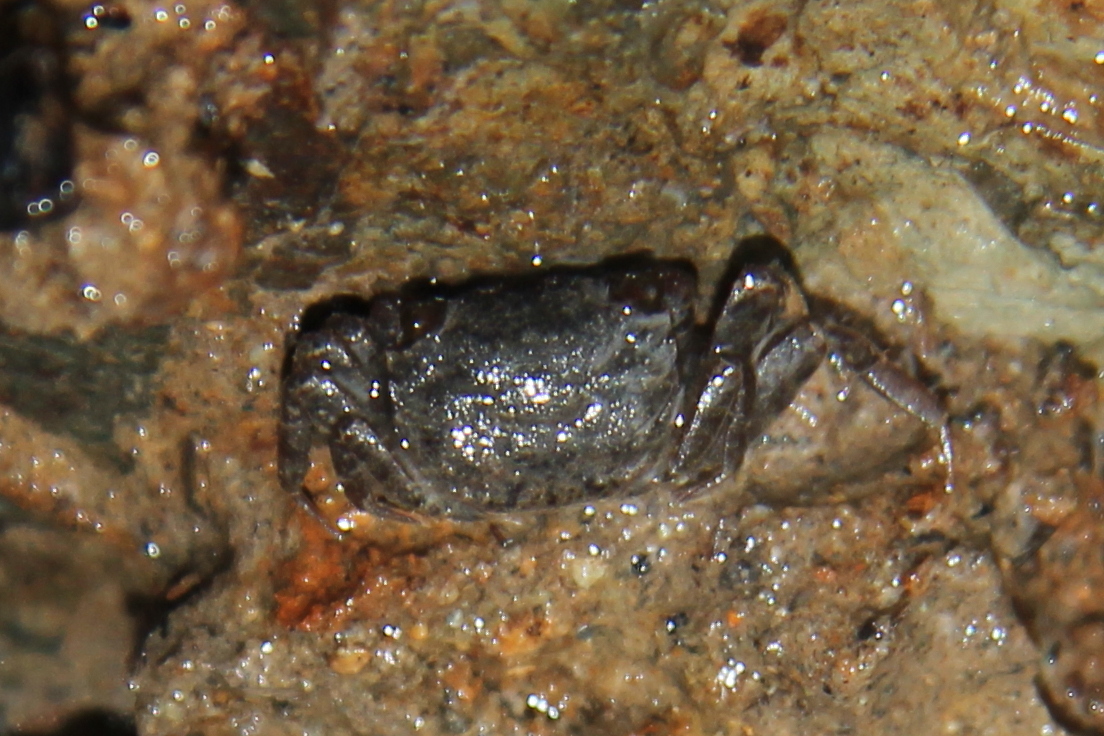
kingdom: Animalia
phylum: Arthropoda
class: Malacostraca
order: Decapoda
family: Varunidae
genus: Austrohelice
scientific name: Austrohelice crassa
